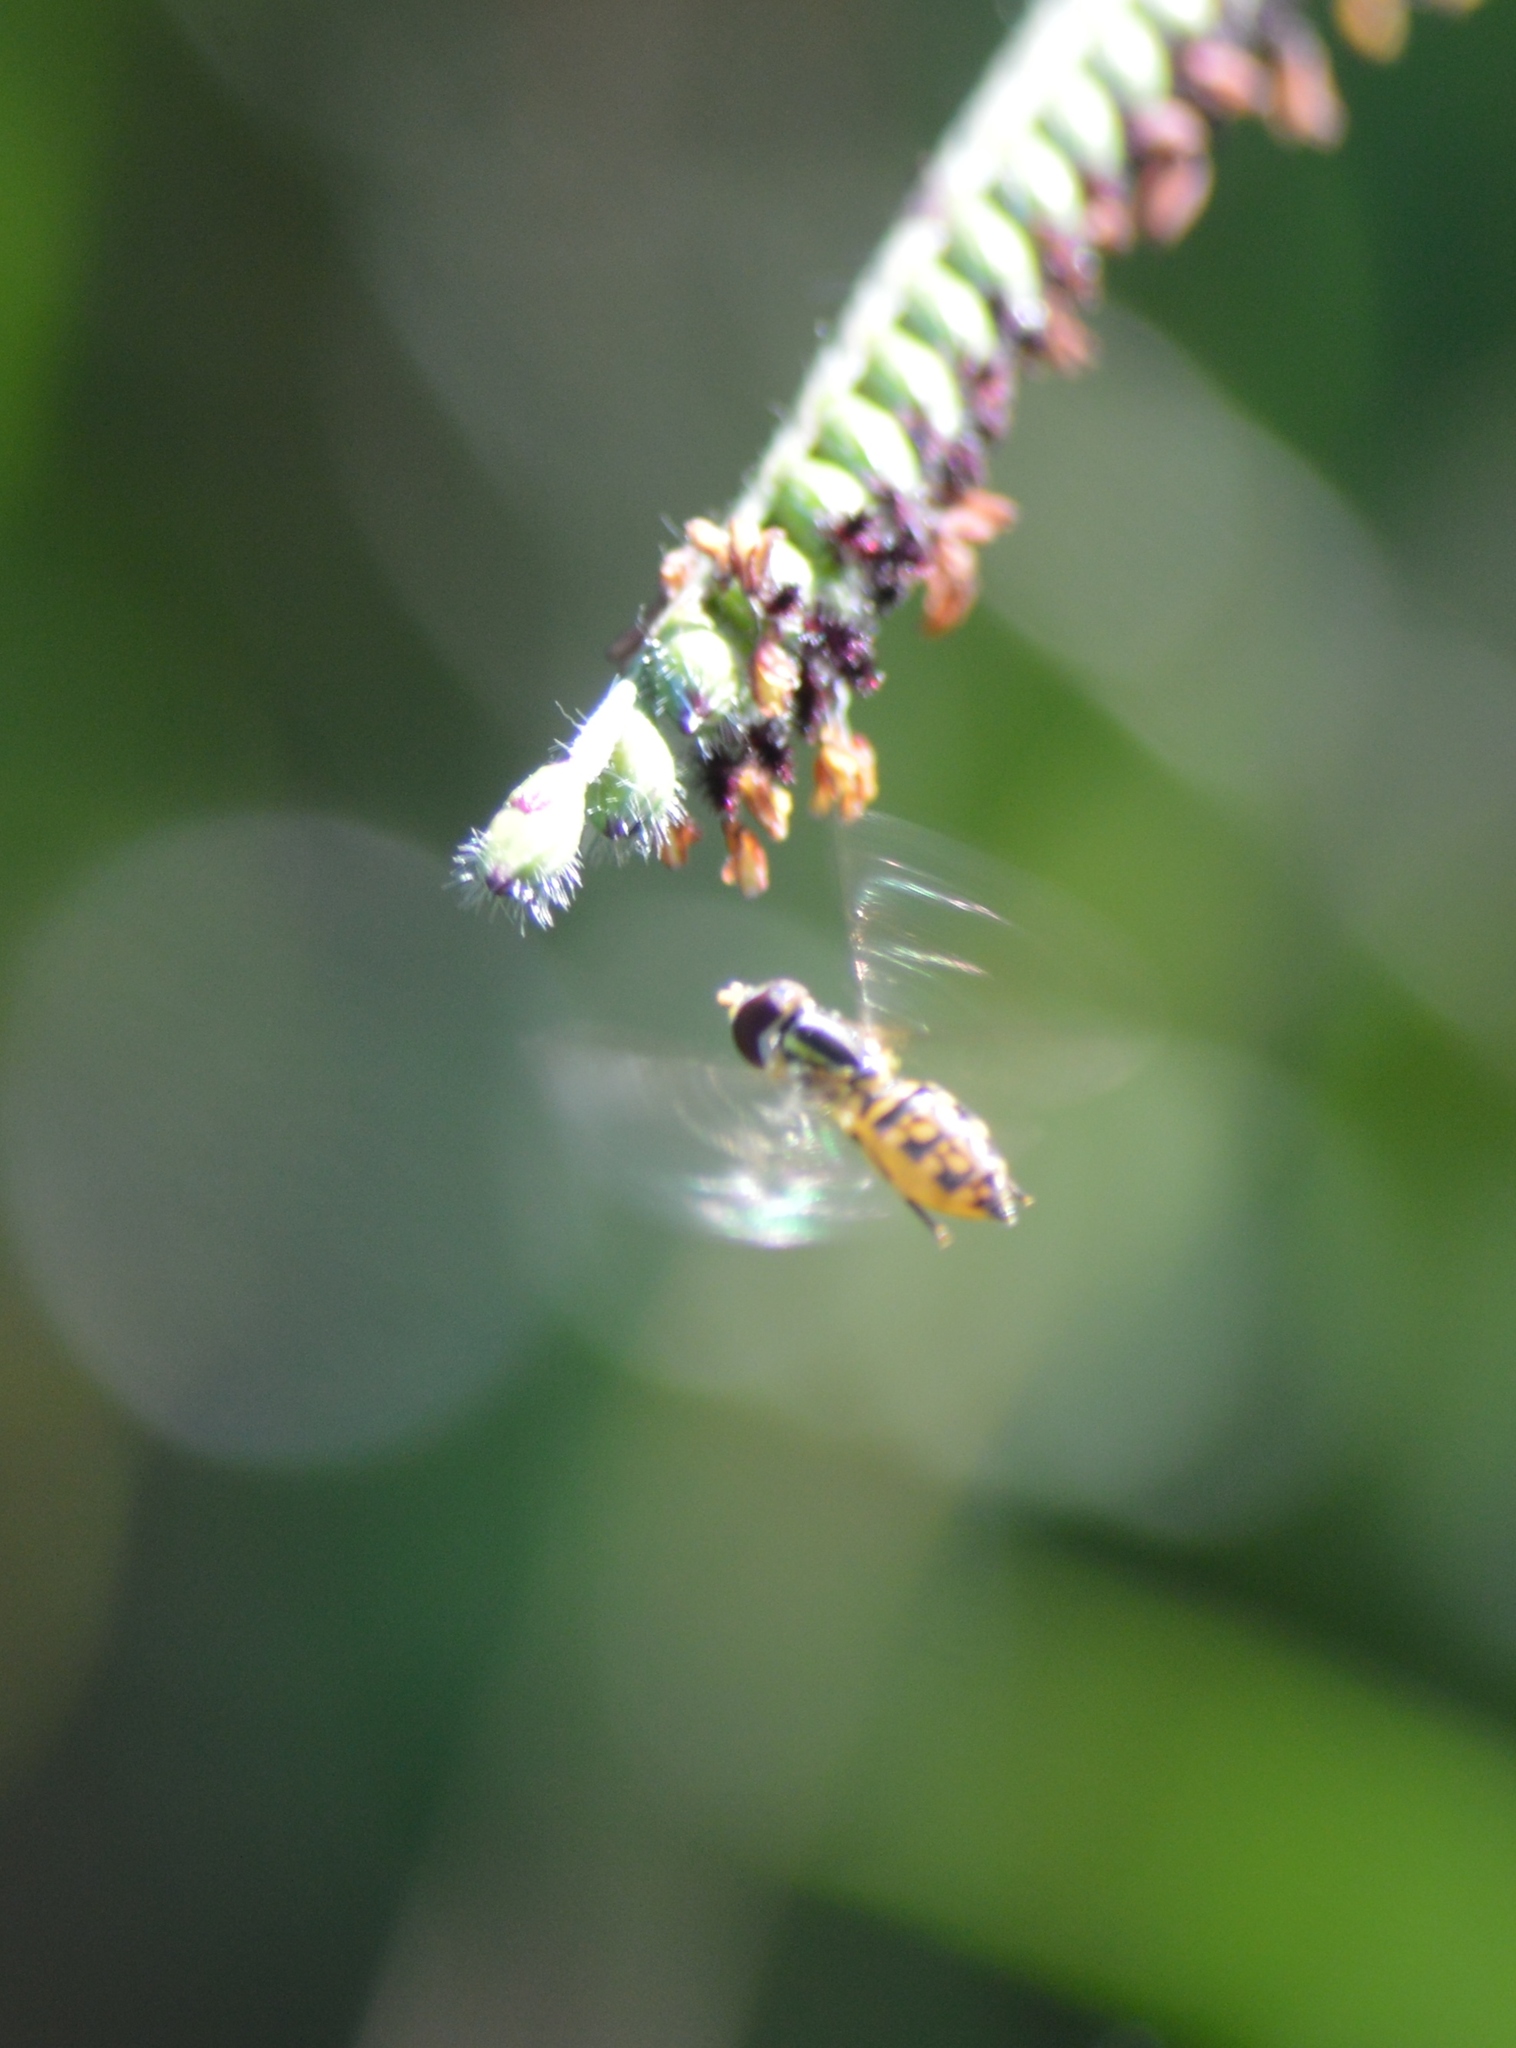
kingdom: Animalia
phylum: Arthropoda
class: Insecta
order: Diptera
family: Syrphidae
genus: Toxomerus
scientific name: Toxomerus
